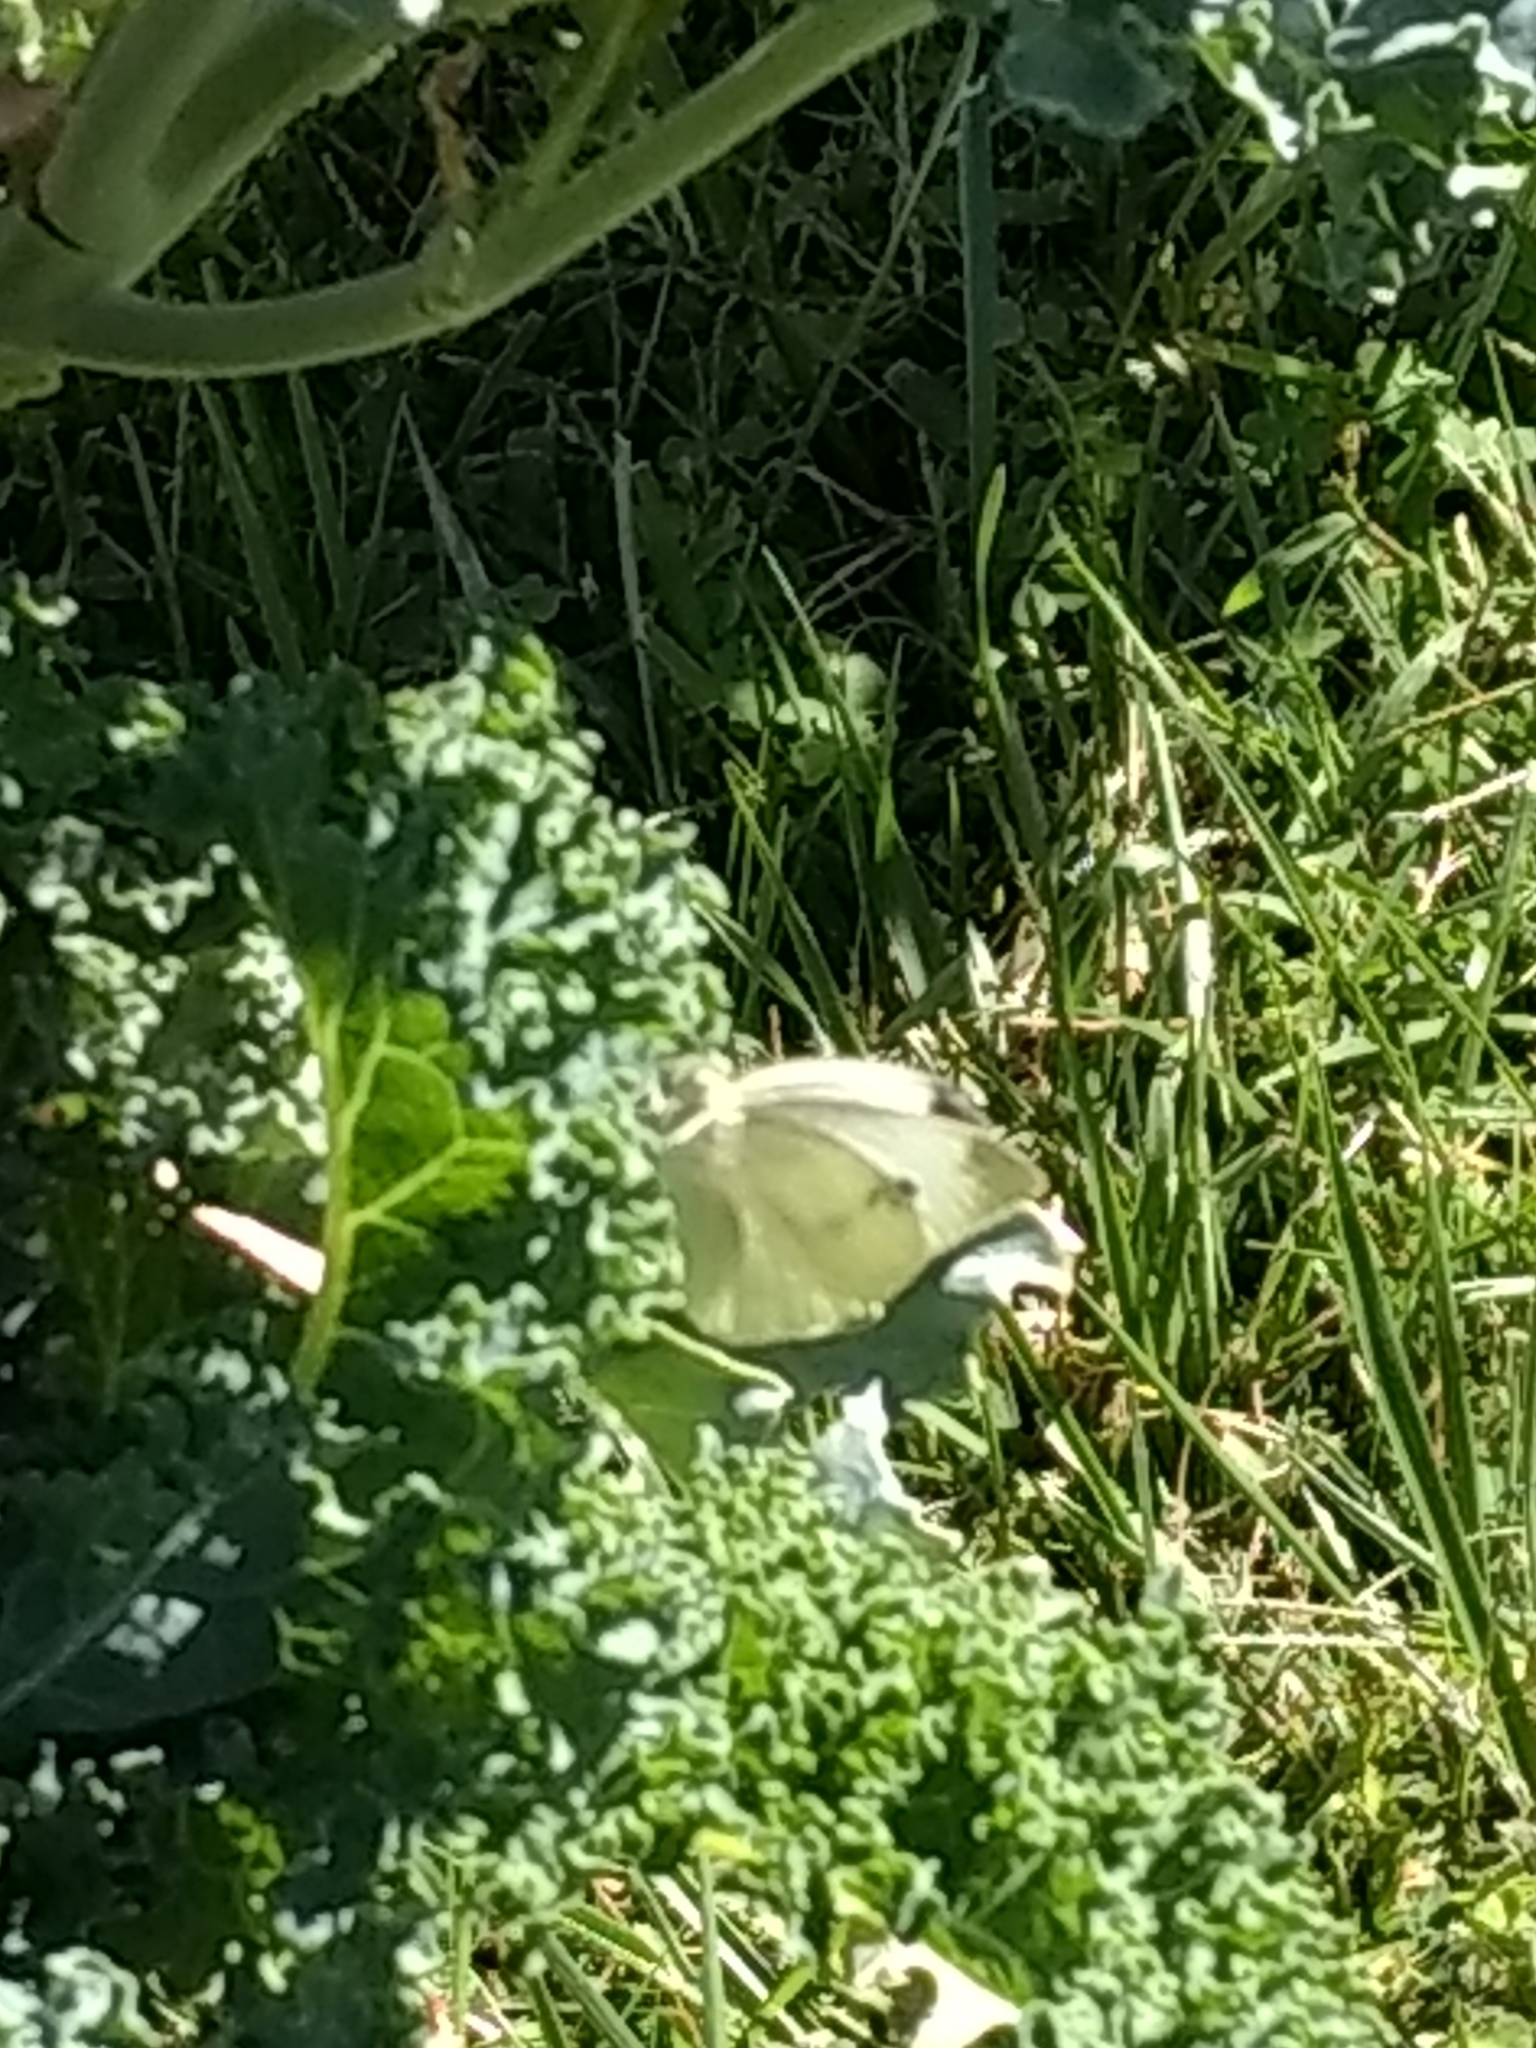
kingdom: Animalia
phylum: Arthropoda
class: Insecta
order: Lepidoptera
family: Pieridae
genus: Pieris
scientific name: Pieris rapae
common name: Small white
